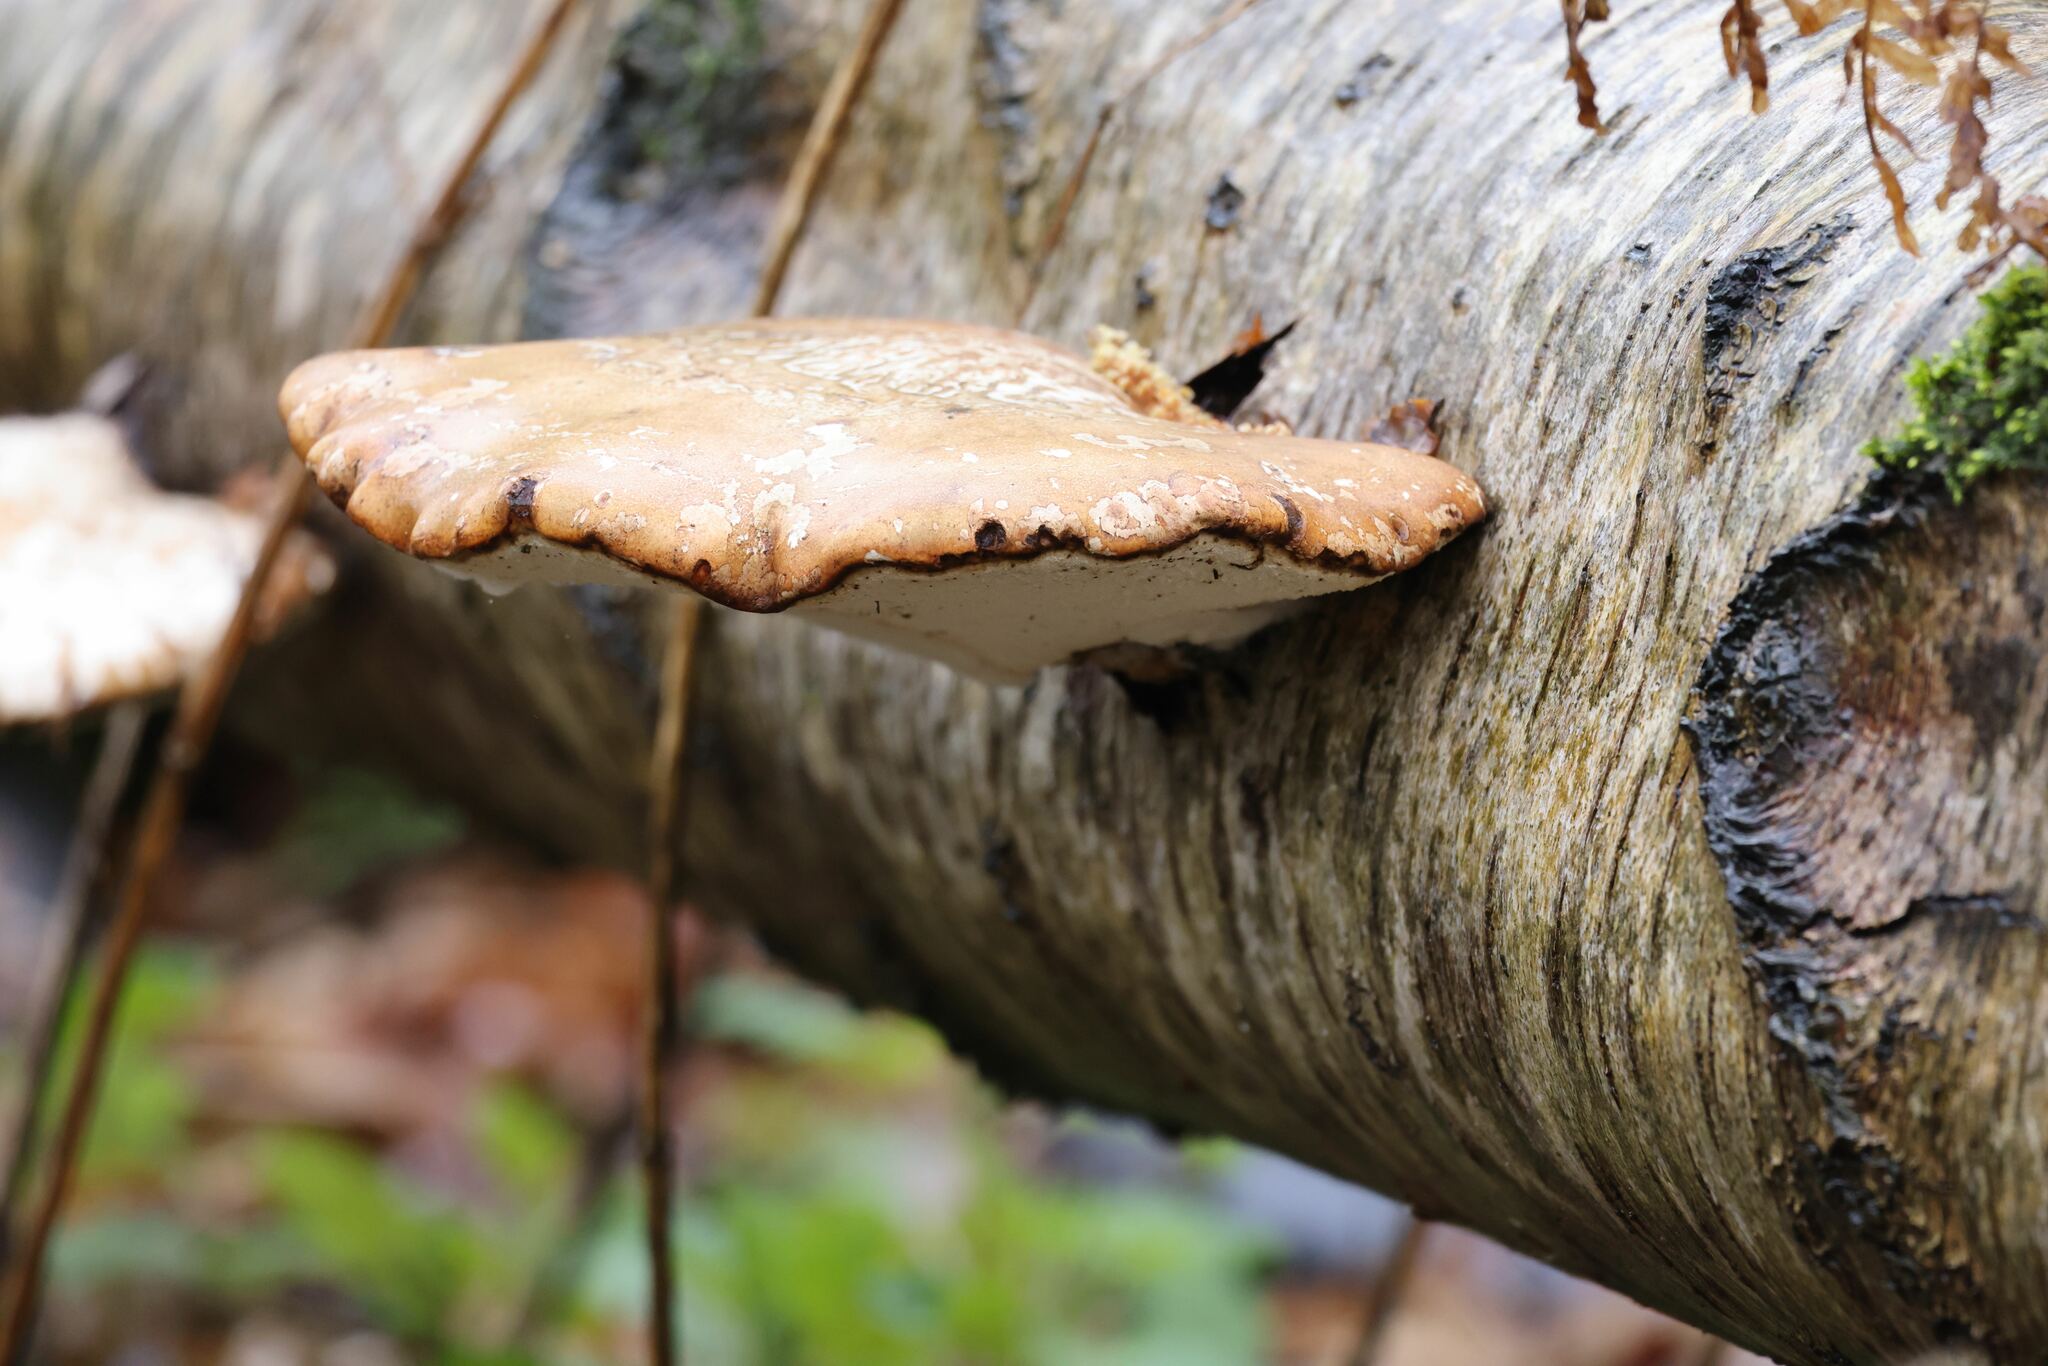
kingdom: Fungi
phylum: Basidiomycota
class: Agaricomycetes
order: Polyporales
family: Fomitopsidaceae
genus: Fomitopsis
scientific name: Fomitopsis betulina
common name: Birch polypore
